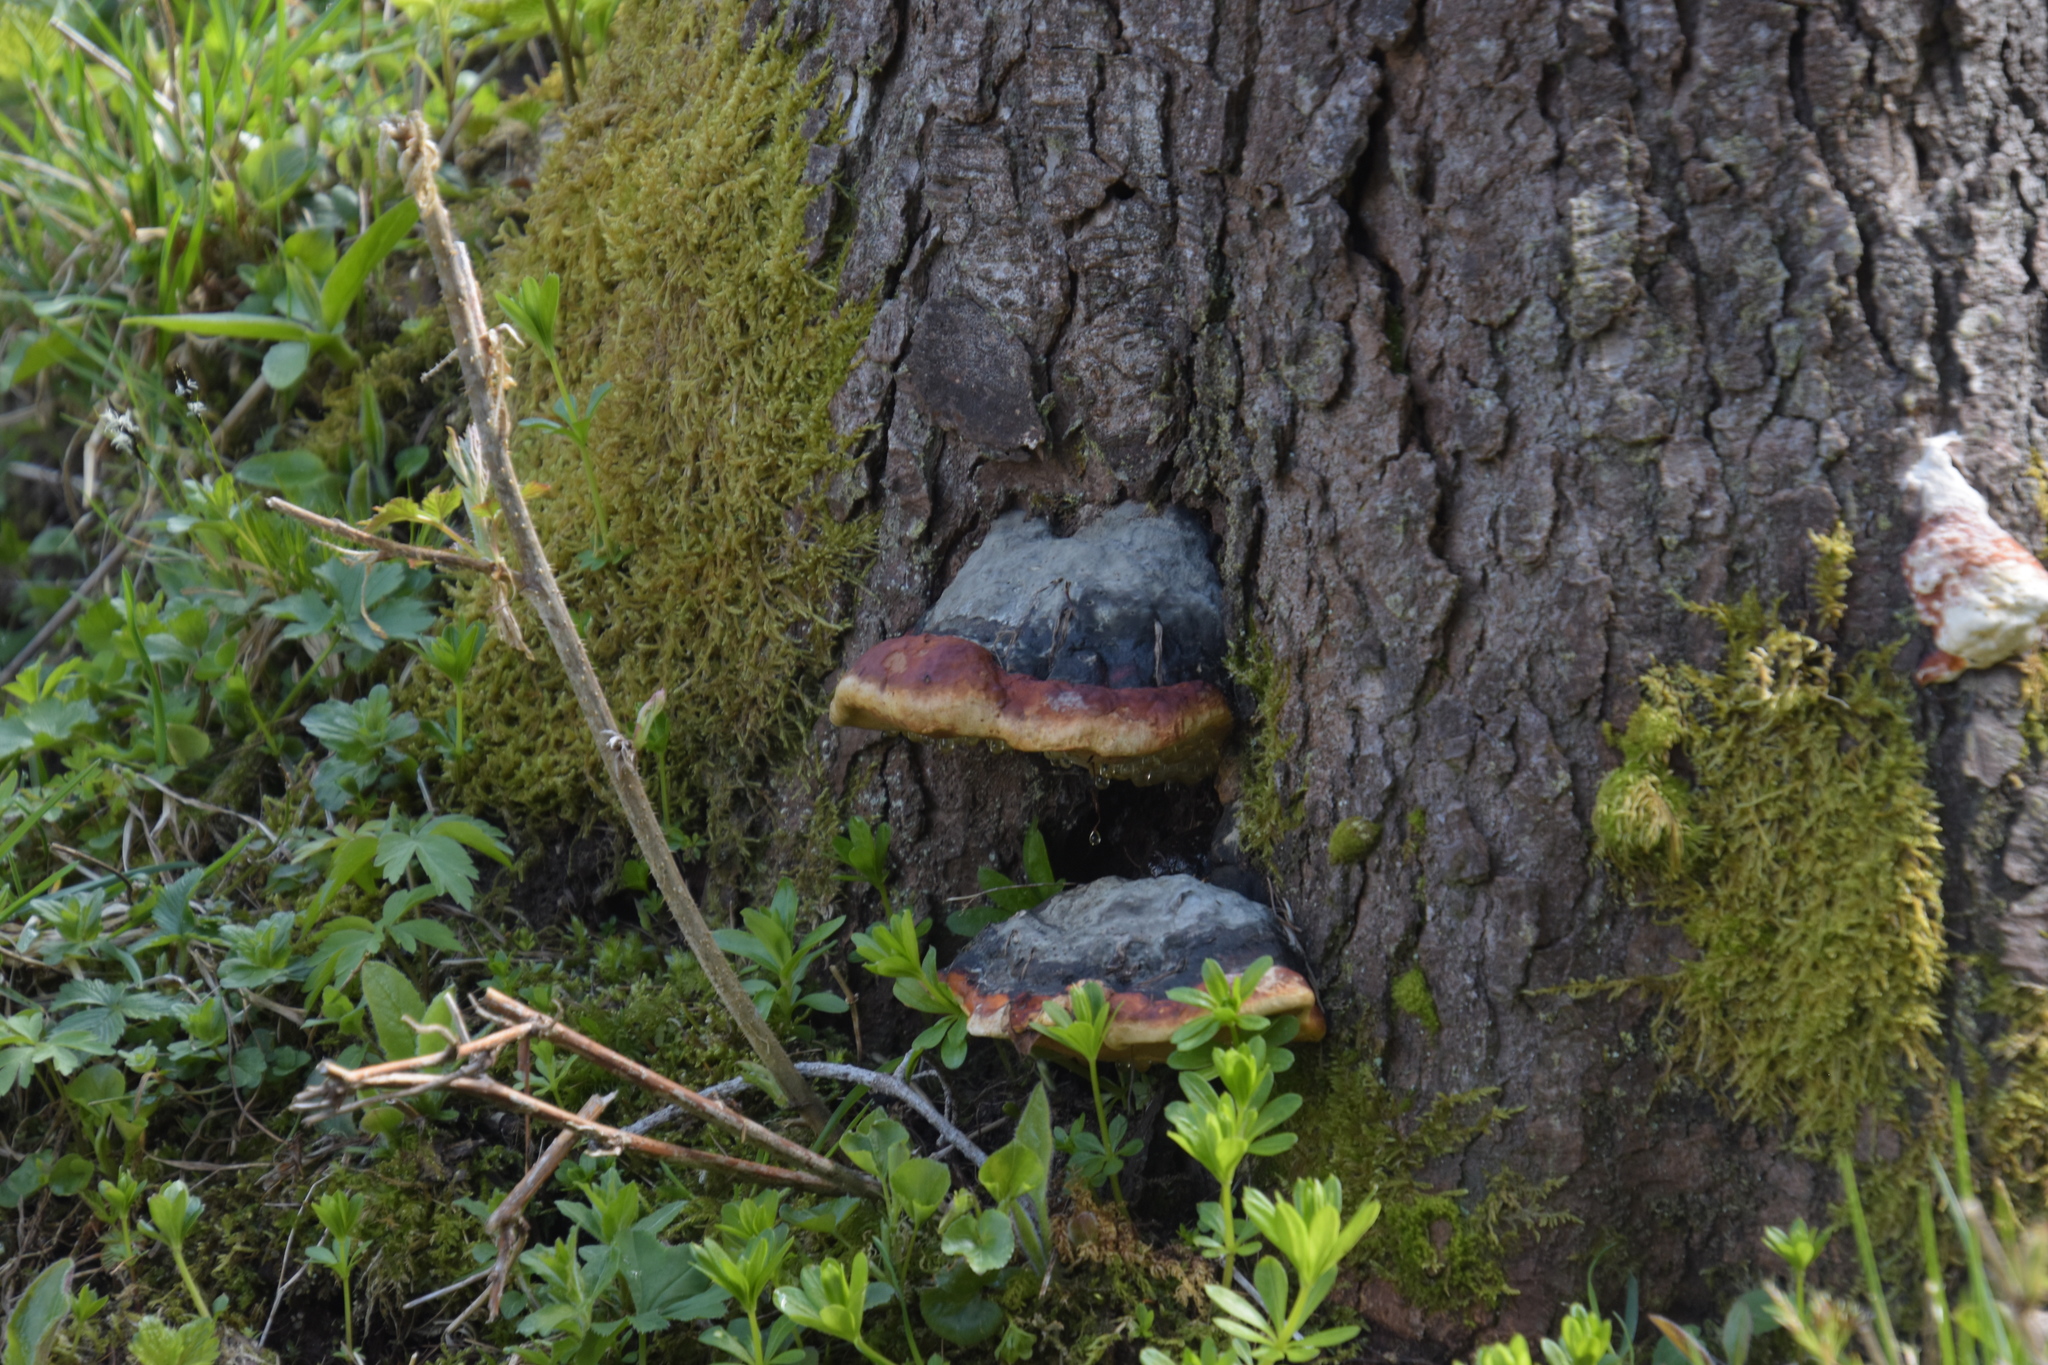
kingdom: Fungi
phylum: Basidiomycota
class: Agaricomycetes
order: Polyporales
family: Fomitopsidaceae
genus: Fomitopsis
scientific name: Fomitopsis pinicola
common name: Red-belted bracket
